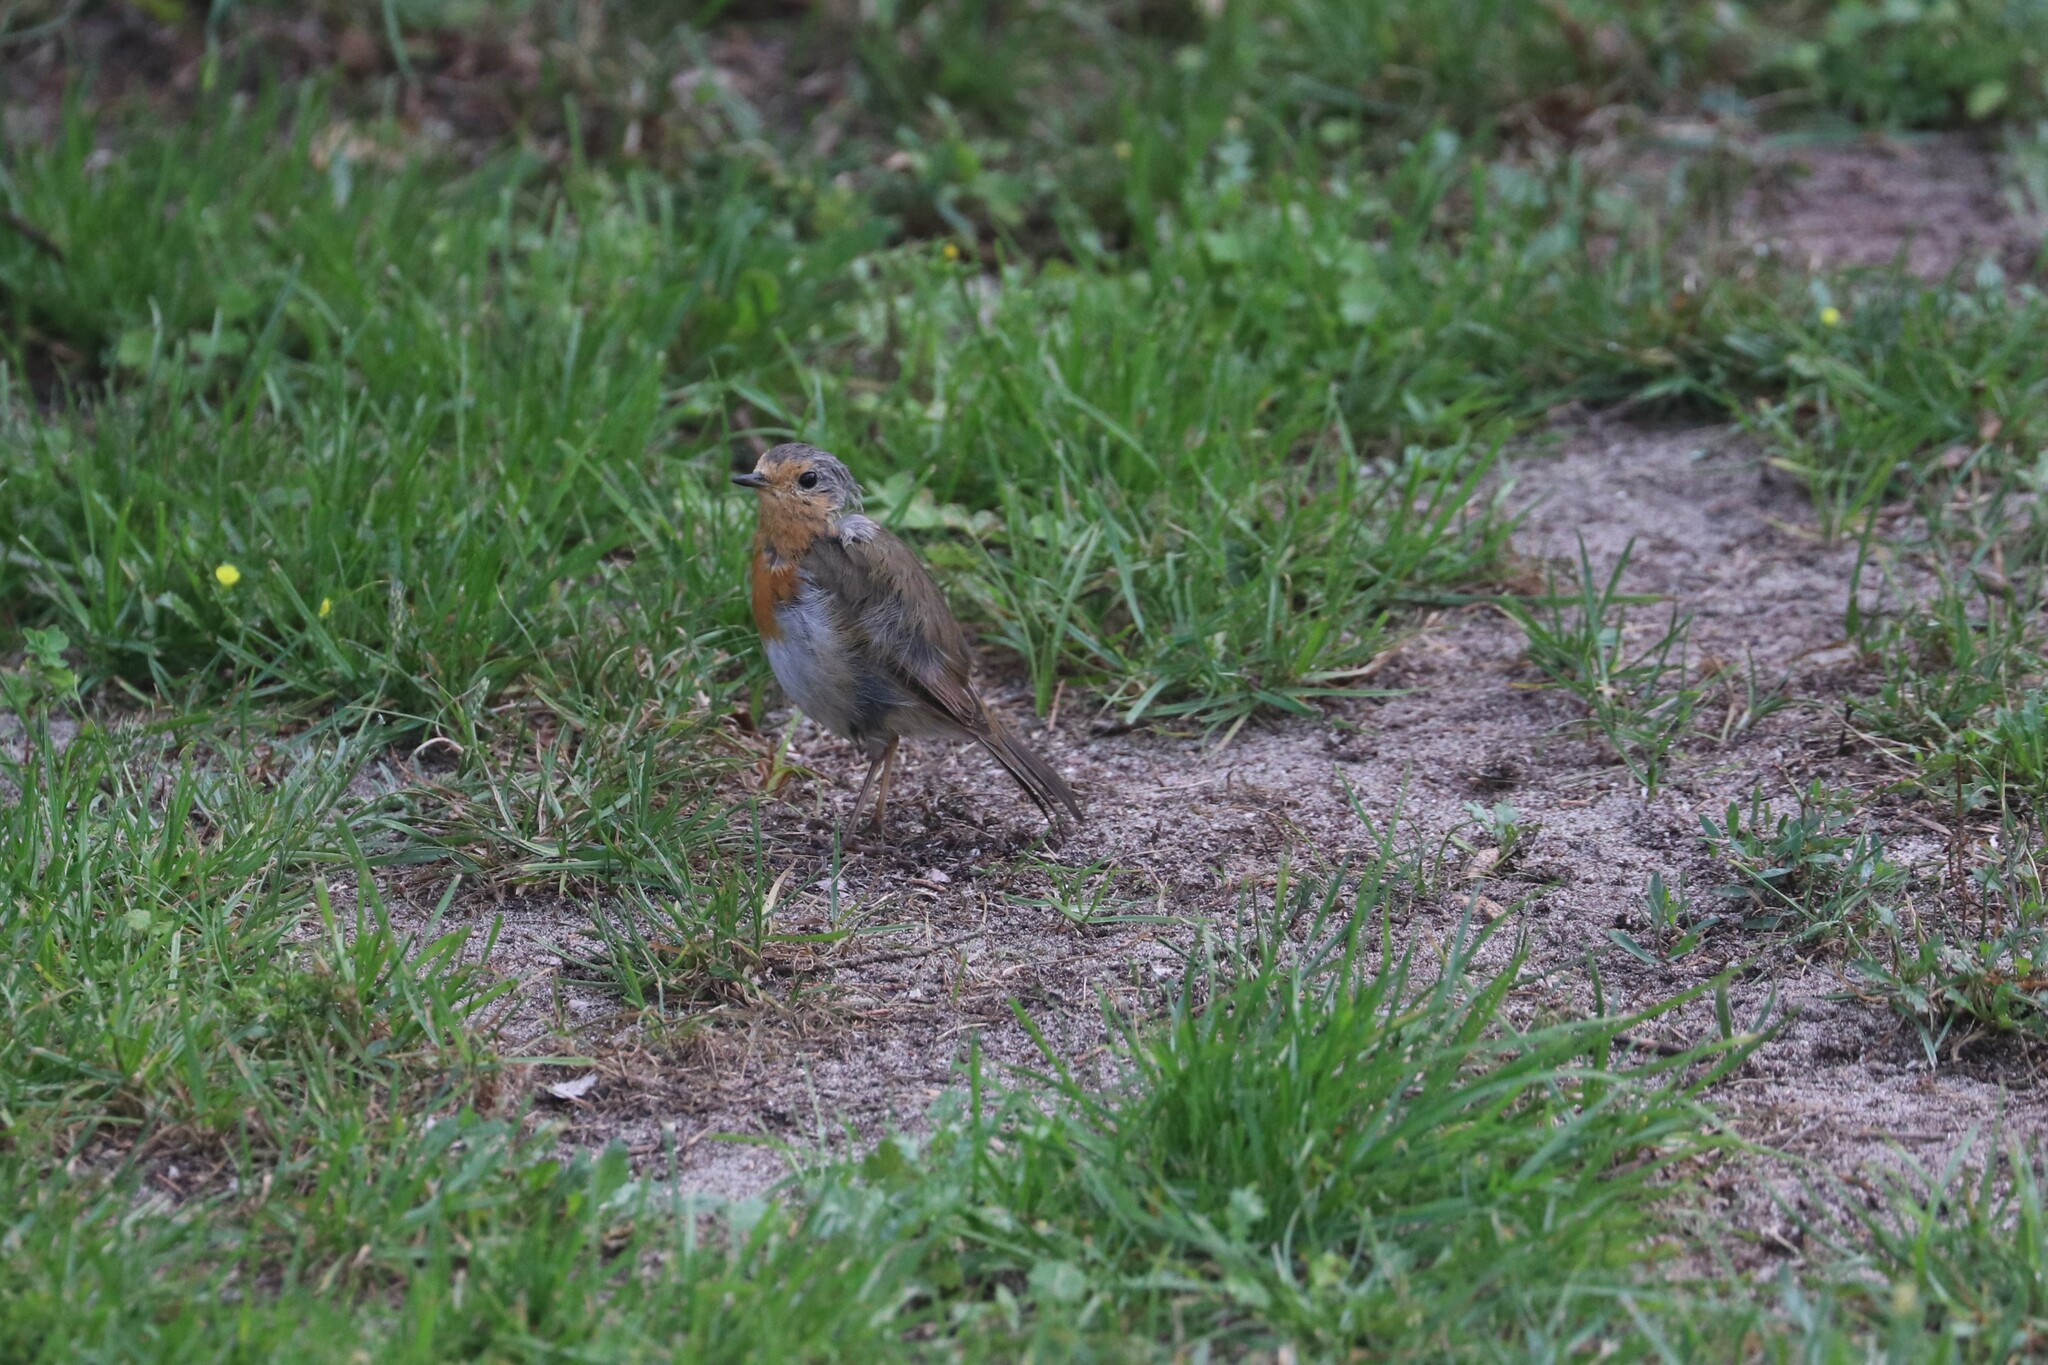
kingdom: Animalia
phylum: Chordata
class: Aves
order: Passeriformes
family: Muscicapidae
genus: Erithacus
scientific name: Erithacus rubecula
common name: European robin
